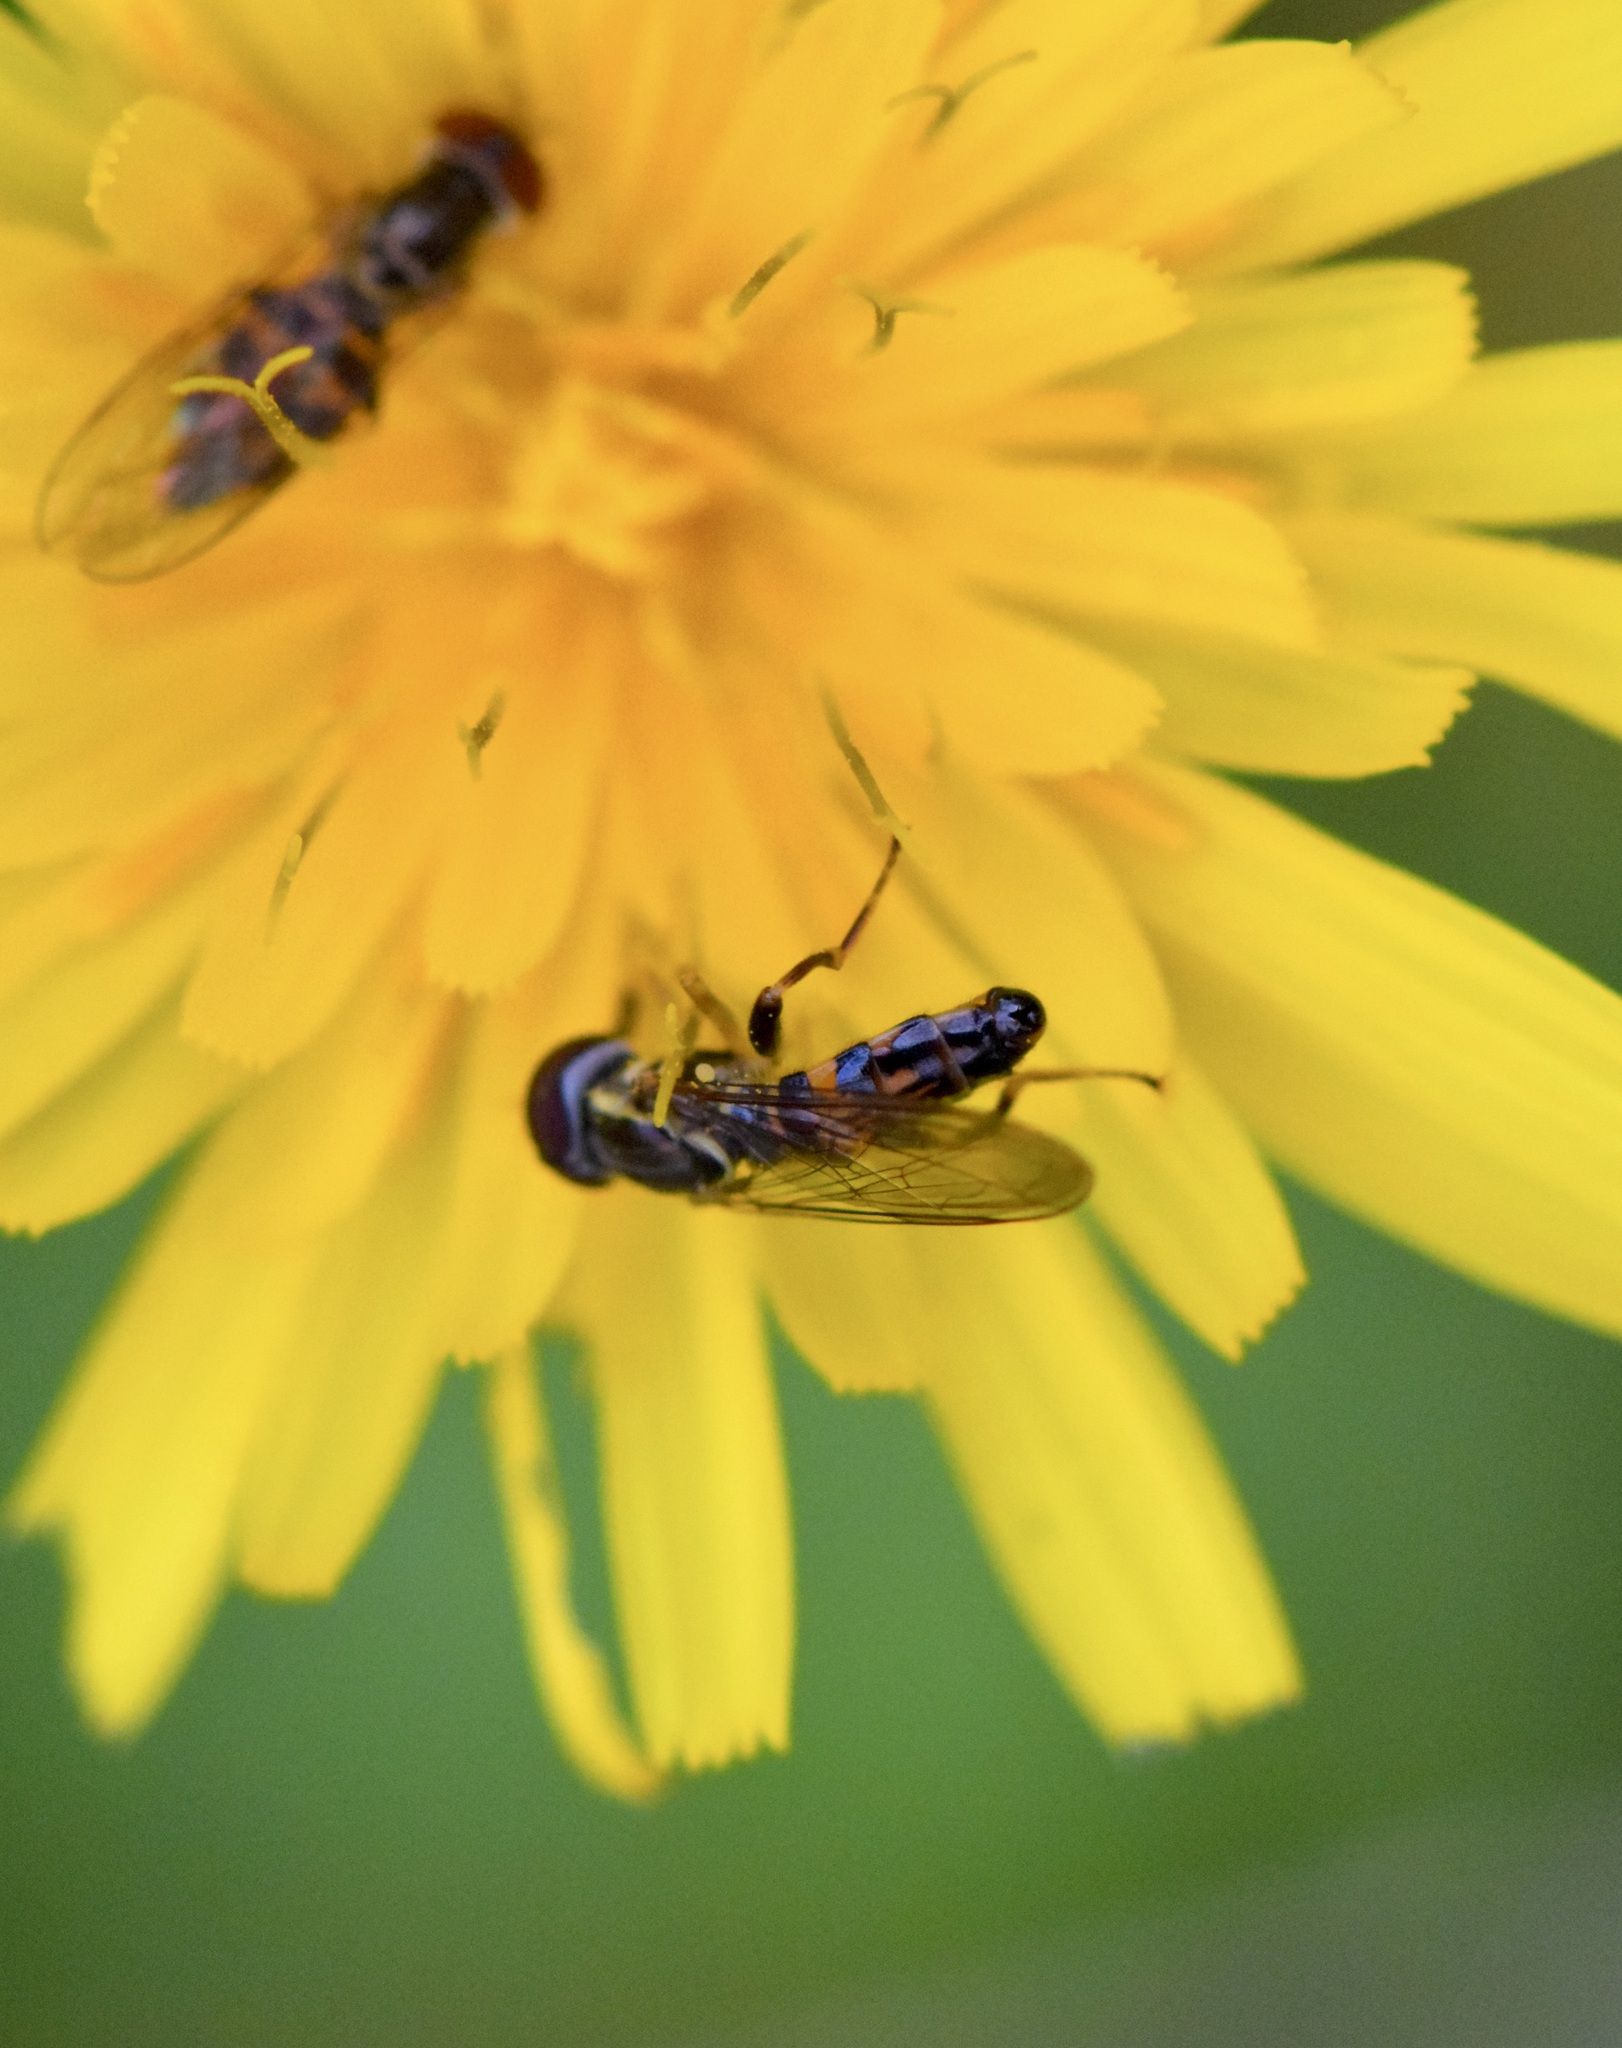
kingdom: Animalia
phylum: Arthropoda
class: Insecta
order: Diptera
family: Syrphidae
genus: Toxomerus
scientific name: Toxomerus geminatus
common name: Eastern calligrapher
